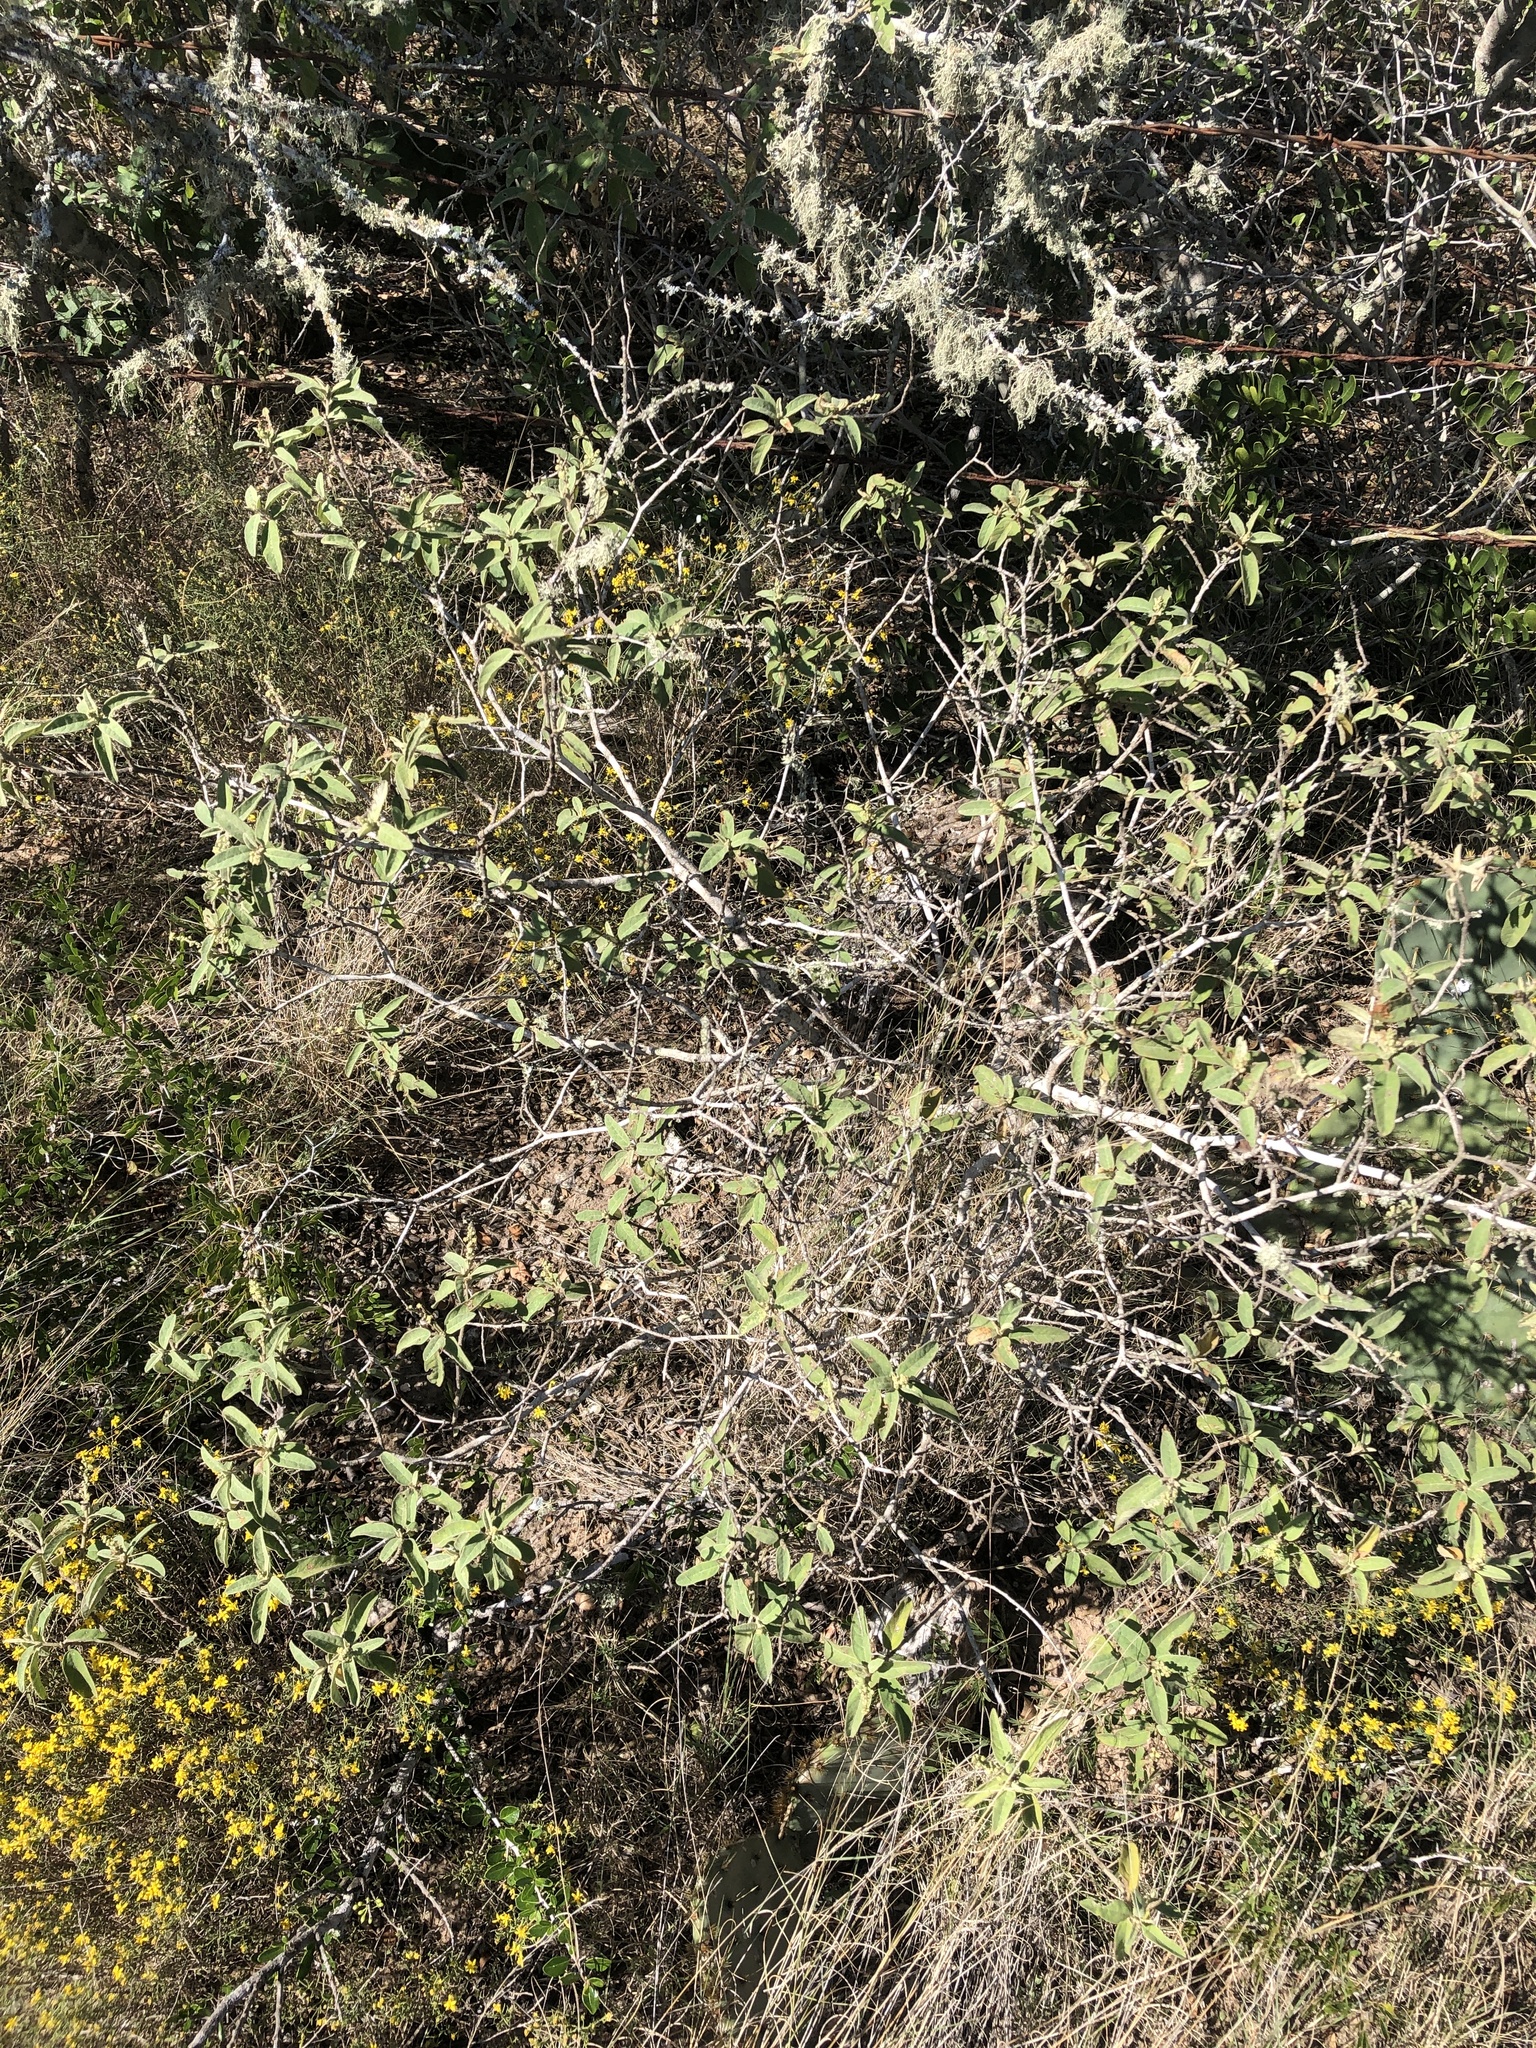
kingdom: Plantae
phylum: Tracheophyta
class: Magnoliopsida
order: Malpighiales
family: Euphorbiaceae
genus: Croton
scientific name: Croton incanus
